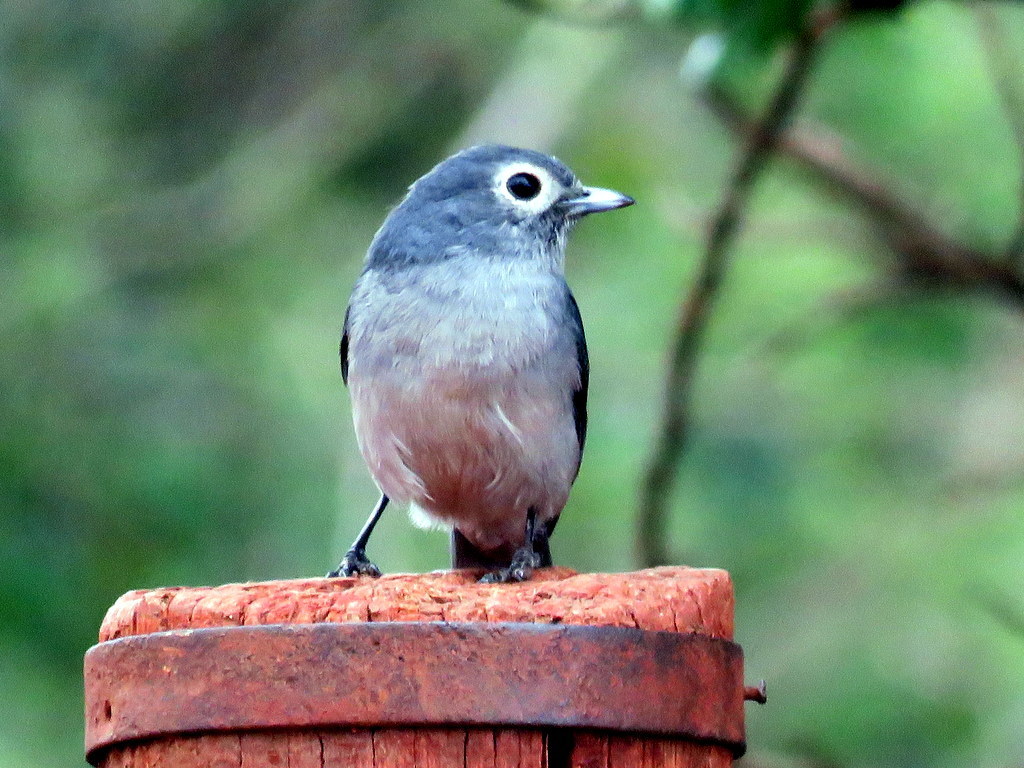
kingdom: Animalia
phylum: Chordata
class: Aves
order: Passeriformes
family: Muscicapidae
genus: Dioptrornis
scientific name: Dioptrornis fischeri
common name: White-eyed slaty flycatcher
